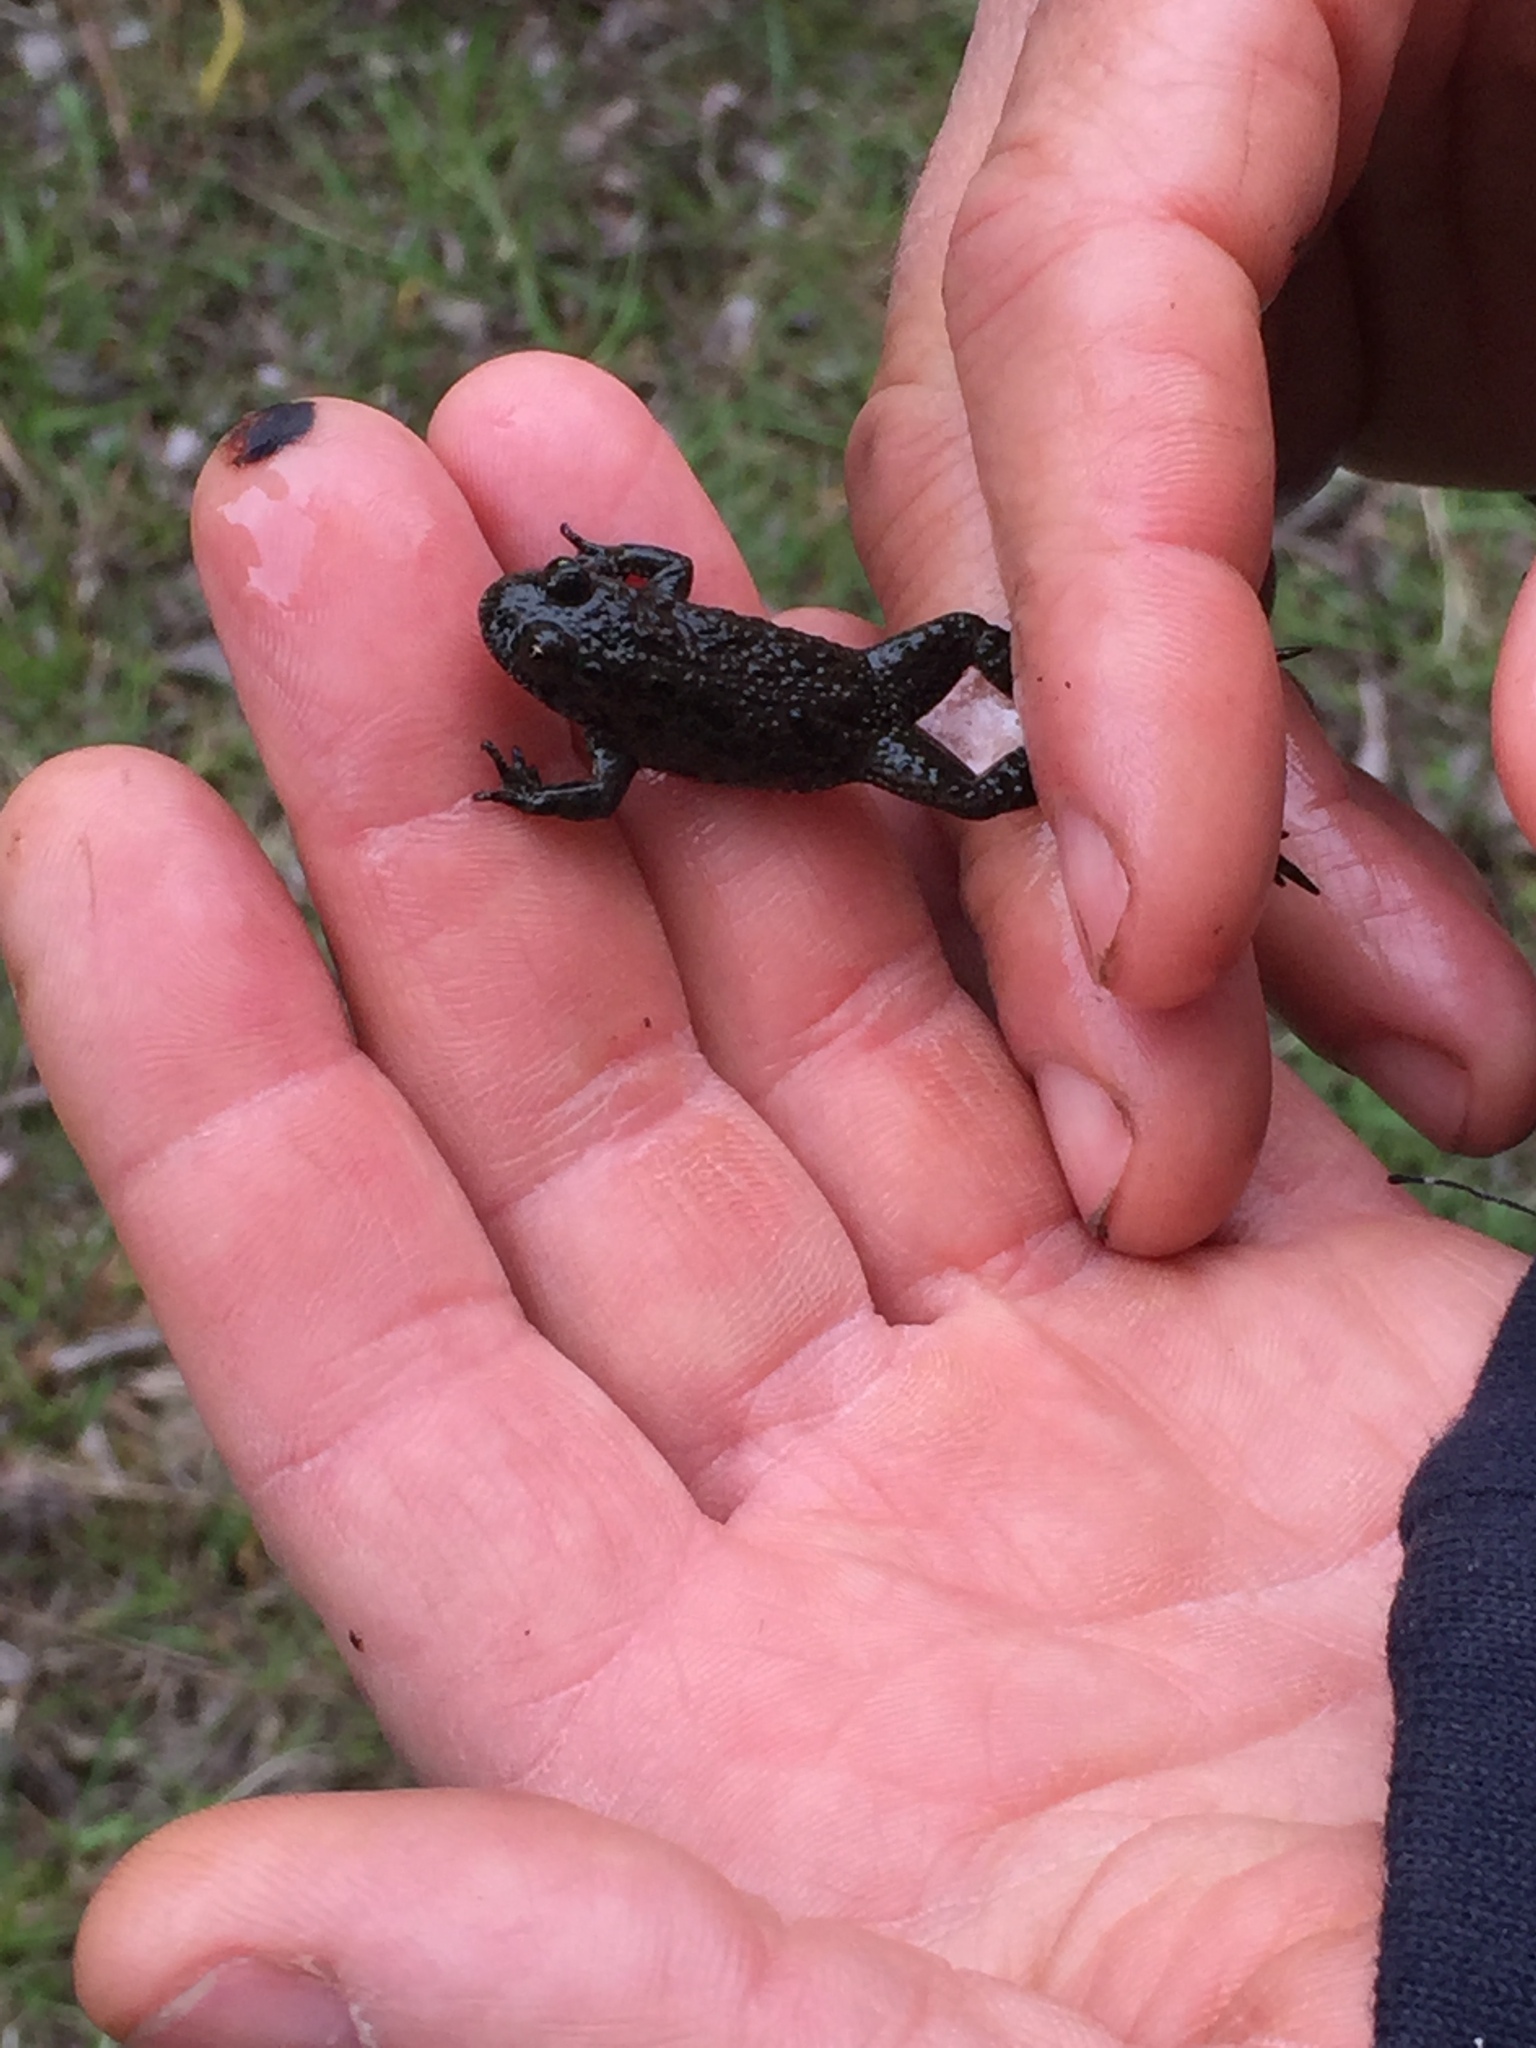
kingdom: Animalia
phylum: Chordata
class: Amphibia
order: Anura
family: Bombinatoridae
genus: Bombina
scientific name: Bombina bombina
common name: Fire-bellied toad
